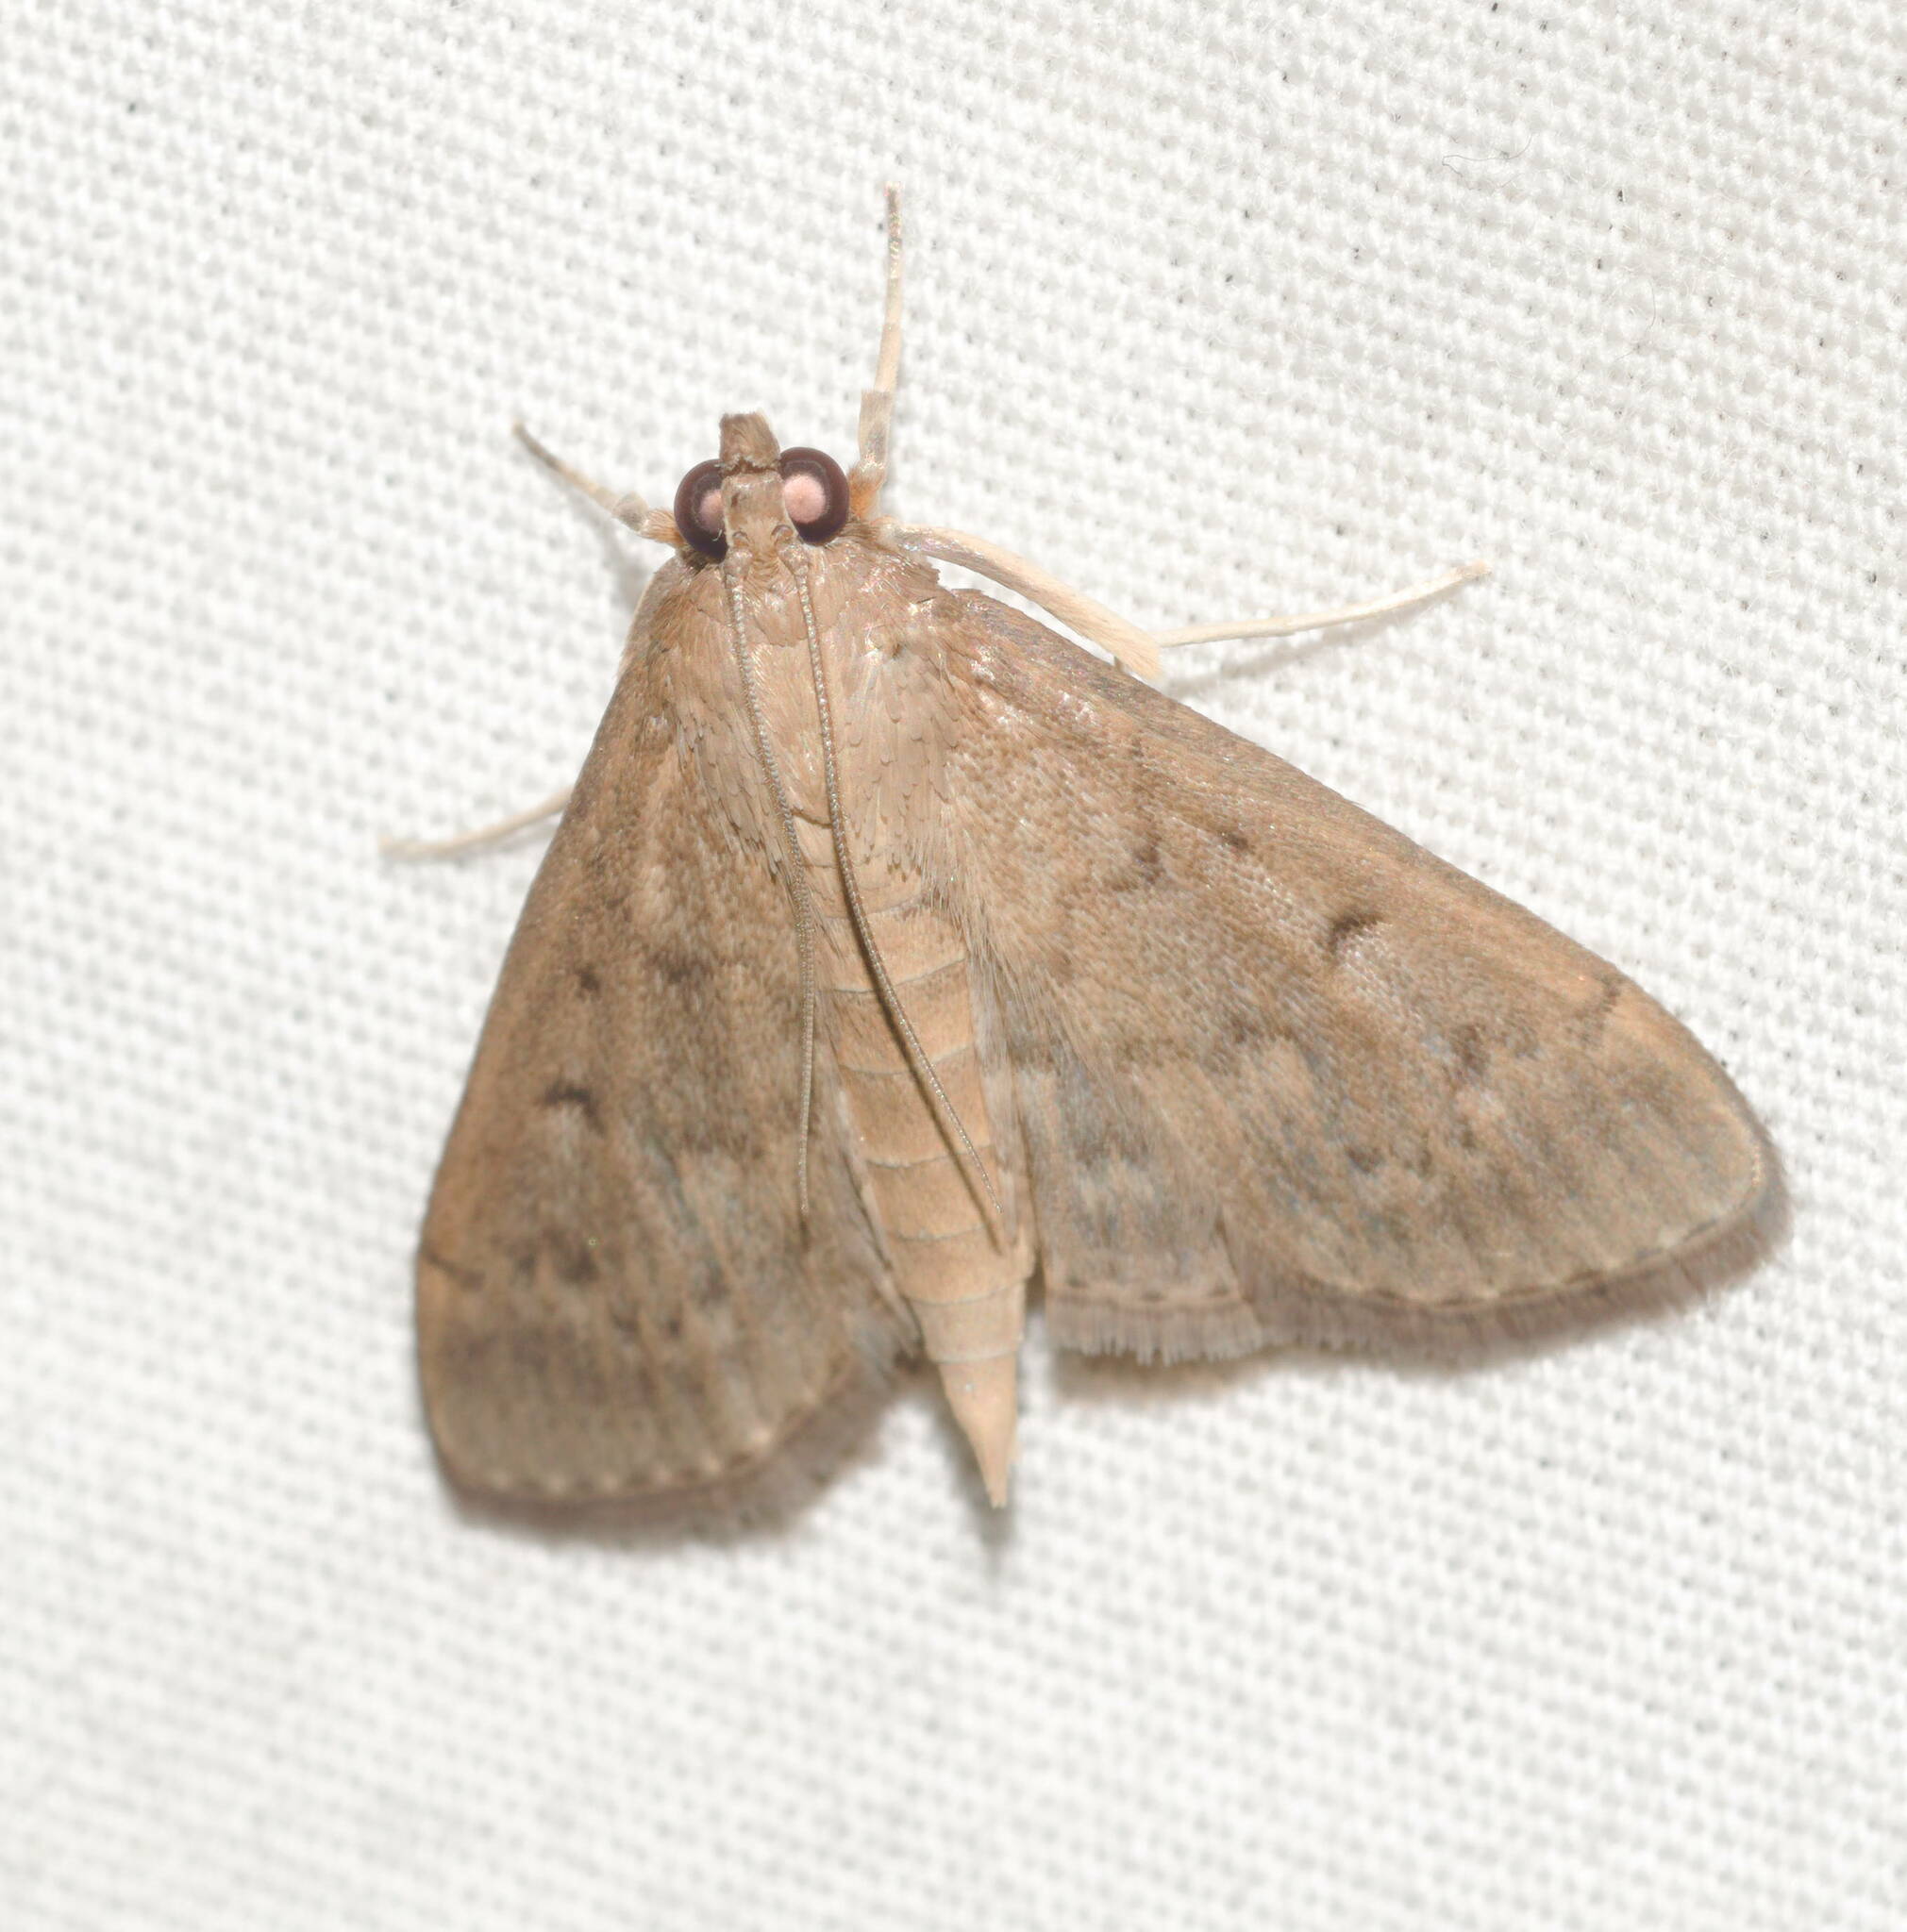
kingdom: Animalia
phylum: Arthropoda
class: Insecta
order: Lepidoptera
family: Crambidae
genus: Herpetogramma
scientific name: Herpetogramma licarsisalis
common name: Grass webworm
